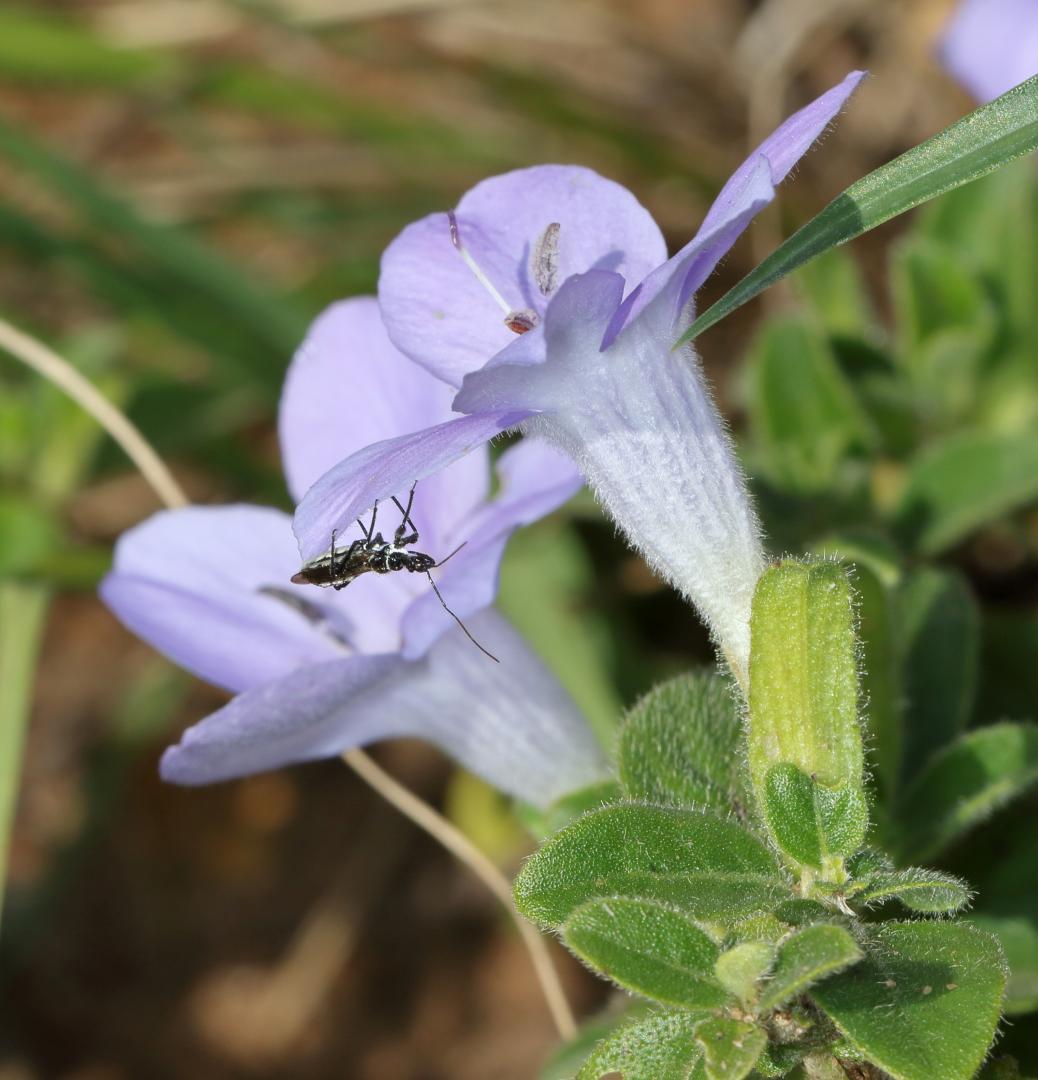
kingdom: Plantae
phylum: Tracheophyta
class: Magnoliopsida
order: Lamiales
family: Acanthaceae
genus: Barleria
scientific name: Barleria obtusa
